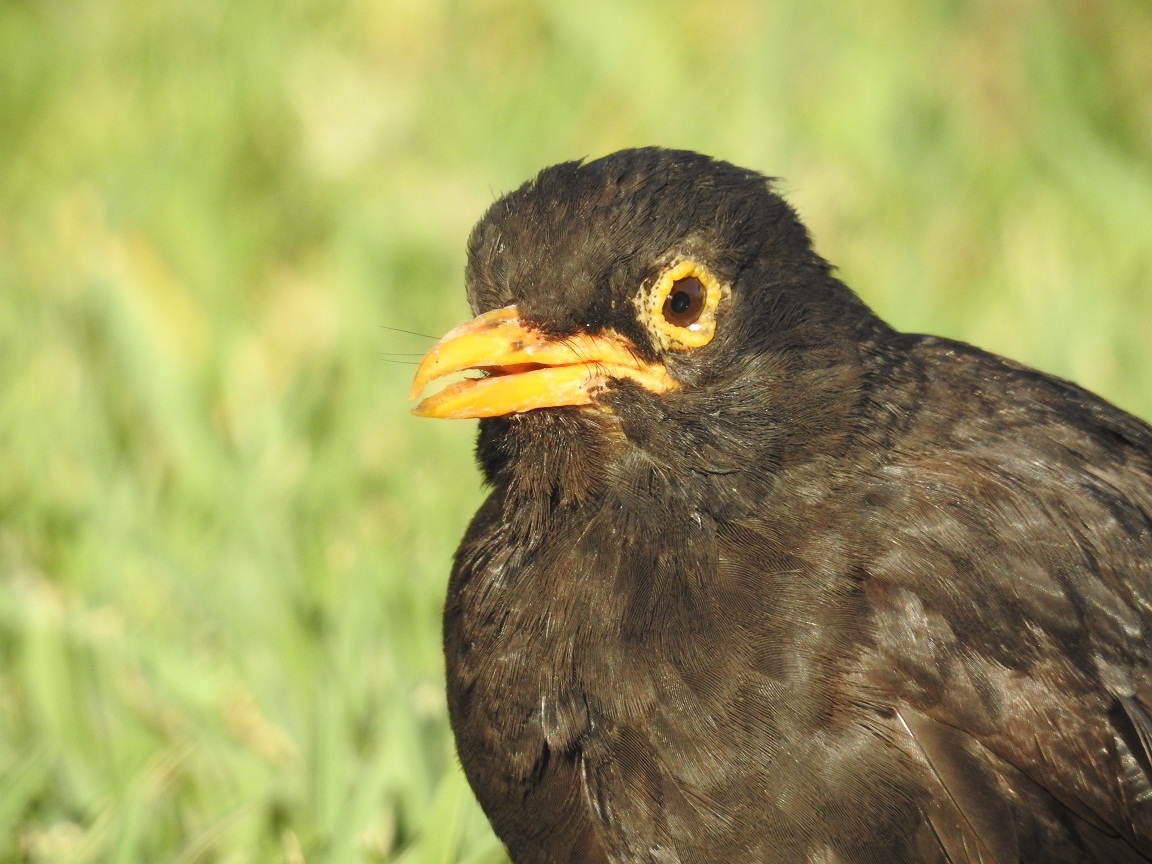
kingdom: Animalia
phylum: Chordata
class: Aves
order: Passeriformes
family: Turdidae
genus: Turdus
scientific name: Turdus merula
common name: Common blackbird
